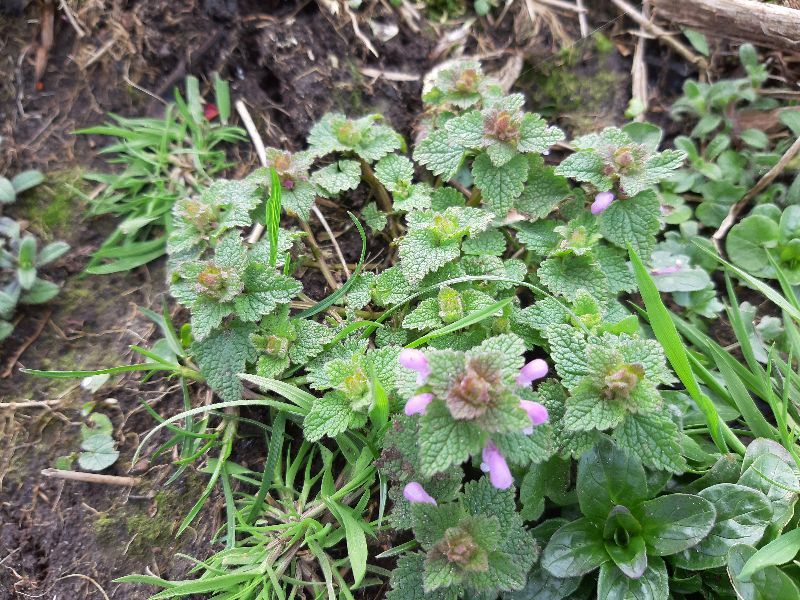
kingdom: Plantae
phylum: Tracheophyta
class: Magnoliopsida
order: Lamiales
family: Lamiaceae
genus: Lamium
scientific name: Lamium purpureum
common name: Red dead-nettle
